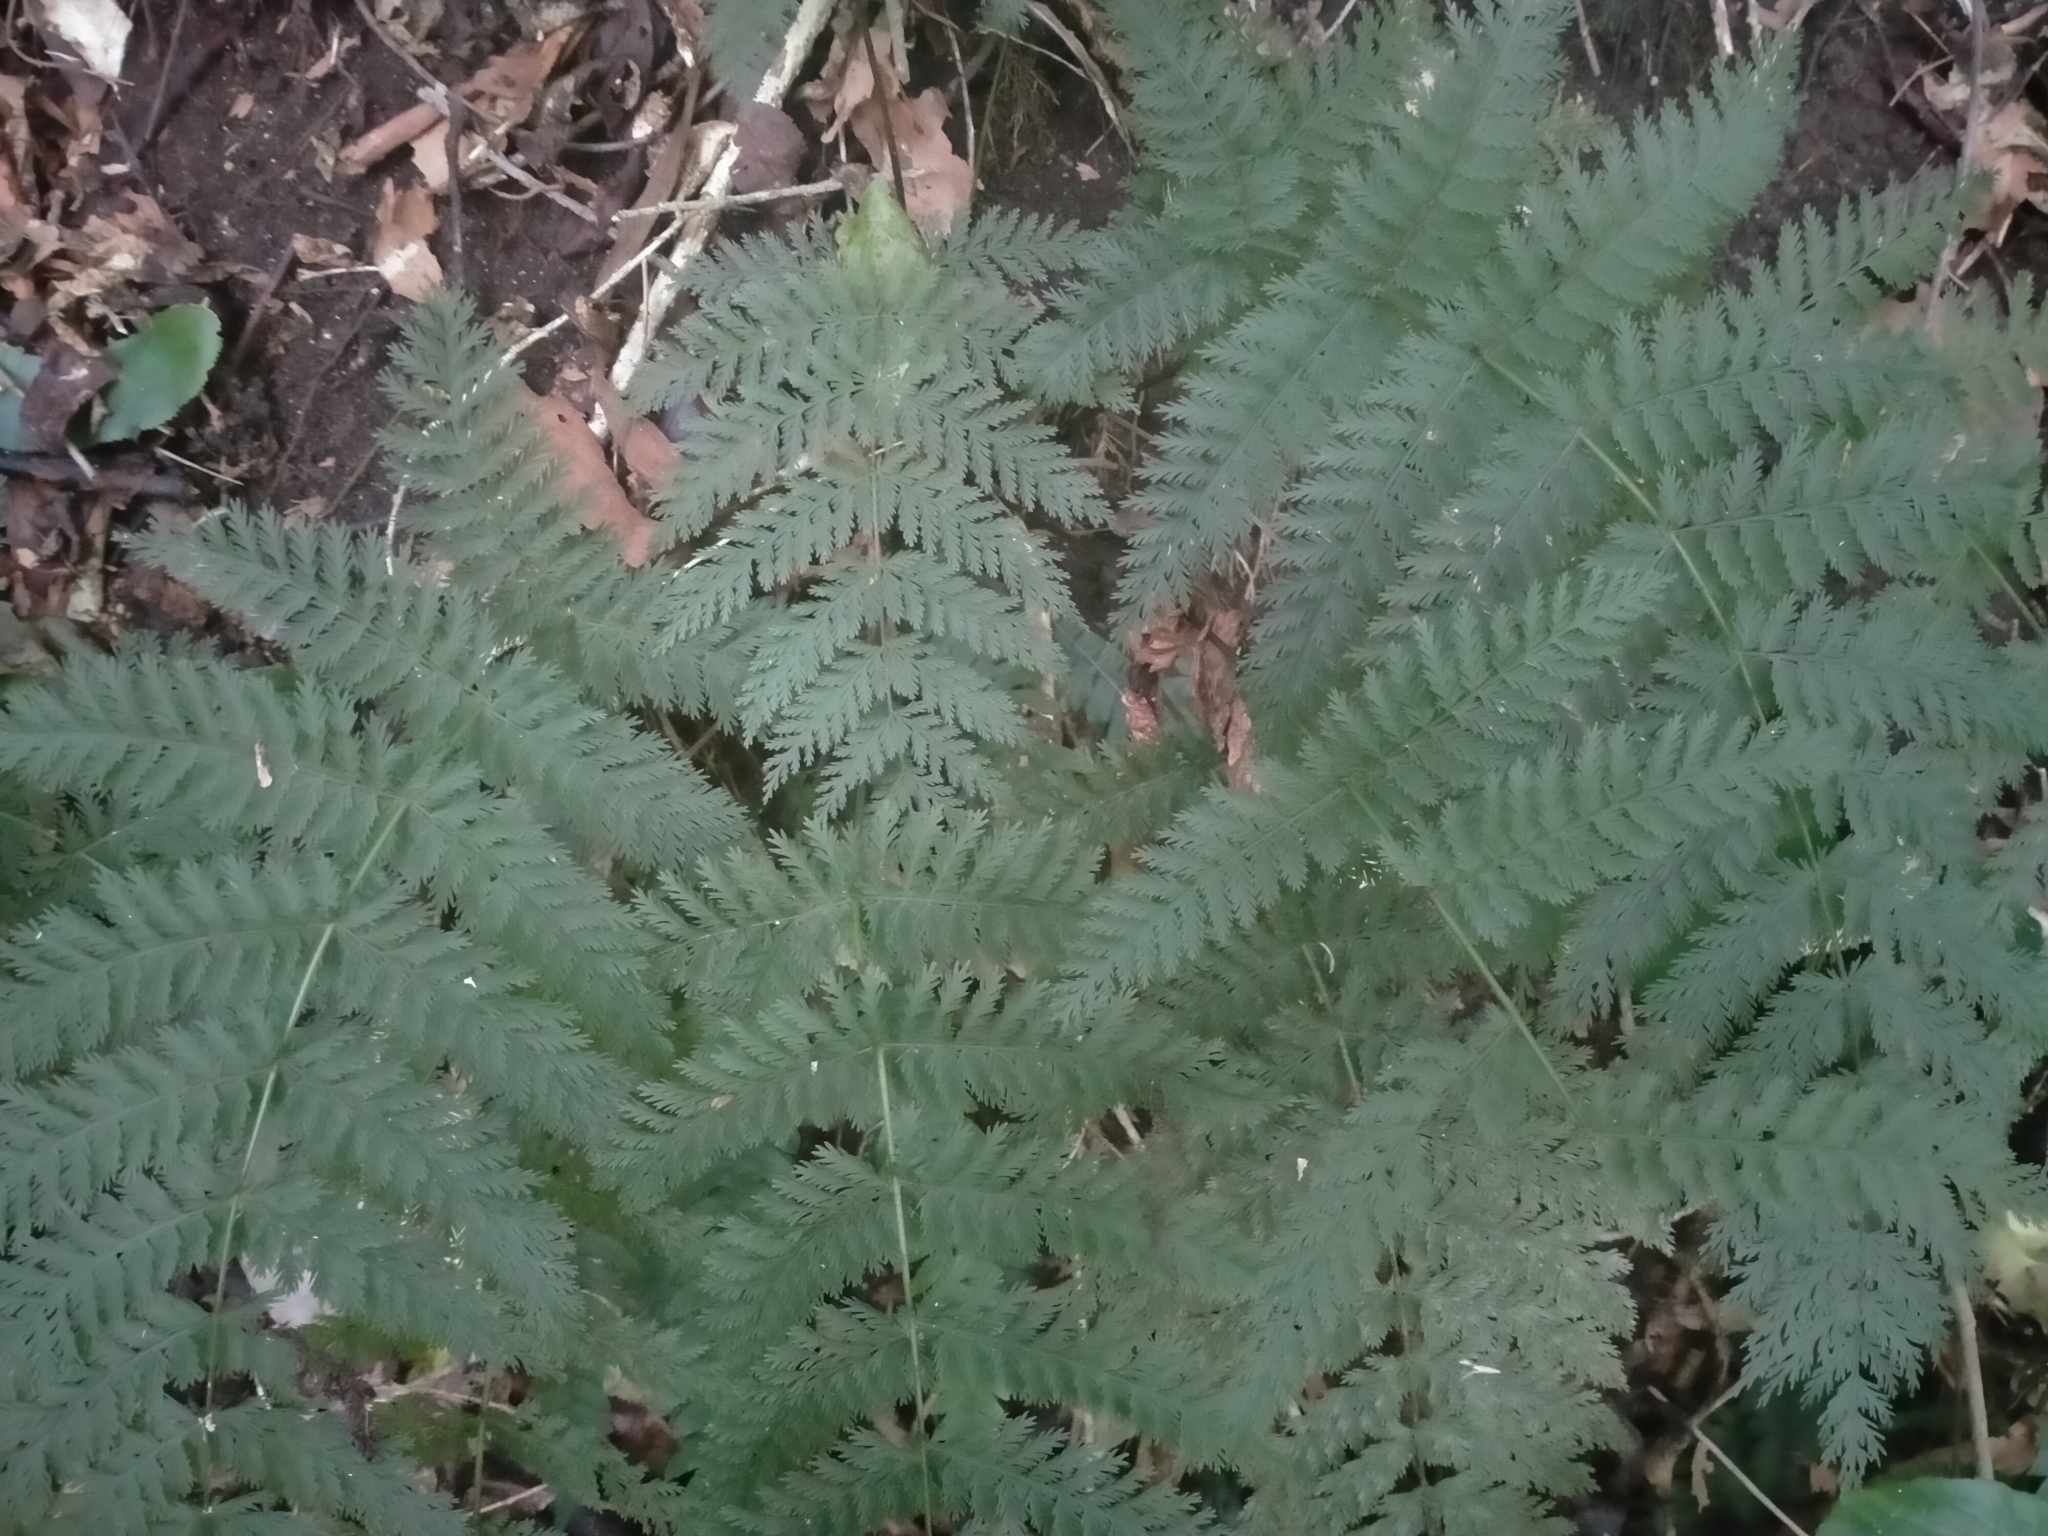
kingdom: Plantae
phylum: Tracheophyta
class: Polypodiopsida
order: Osmundales
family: Osmundaceae
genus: Leptopteris
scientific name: Leptopteris hymenophylloides
